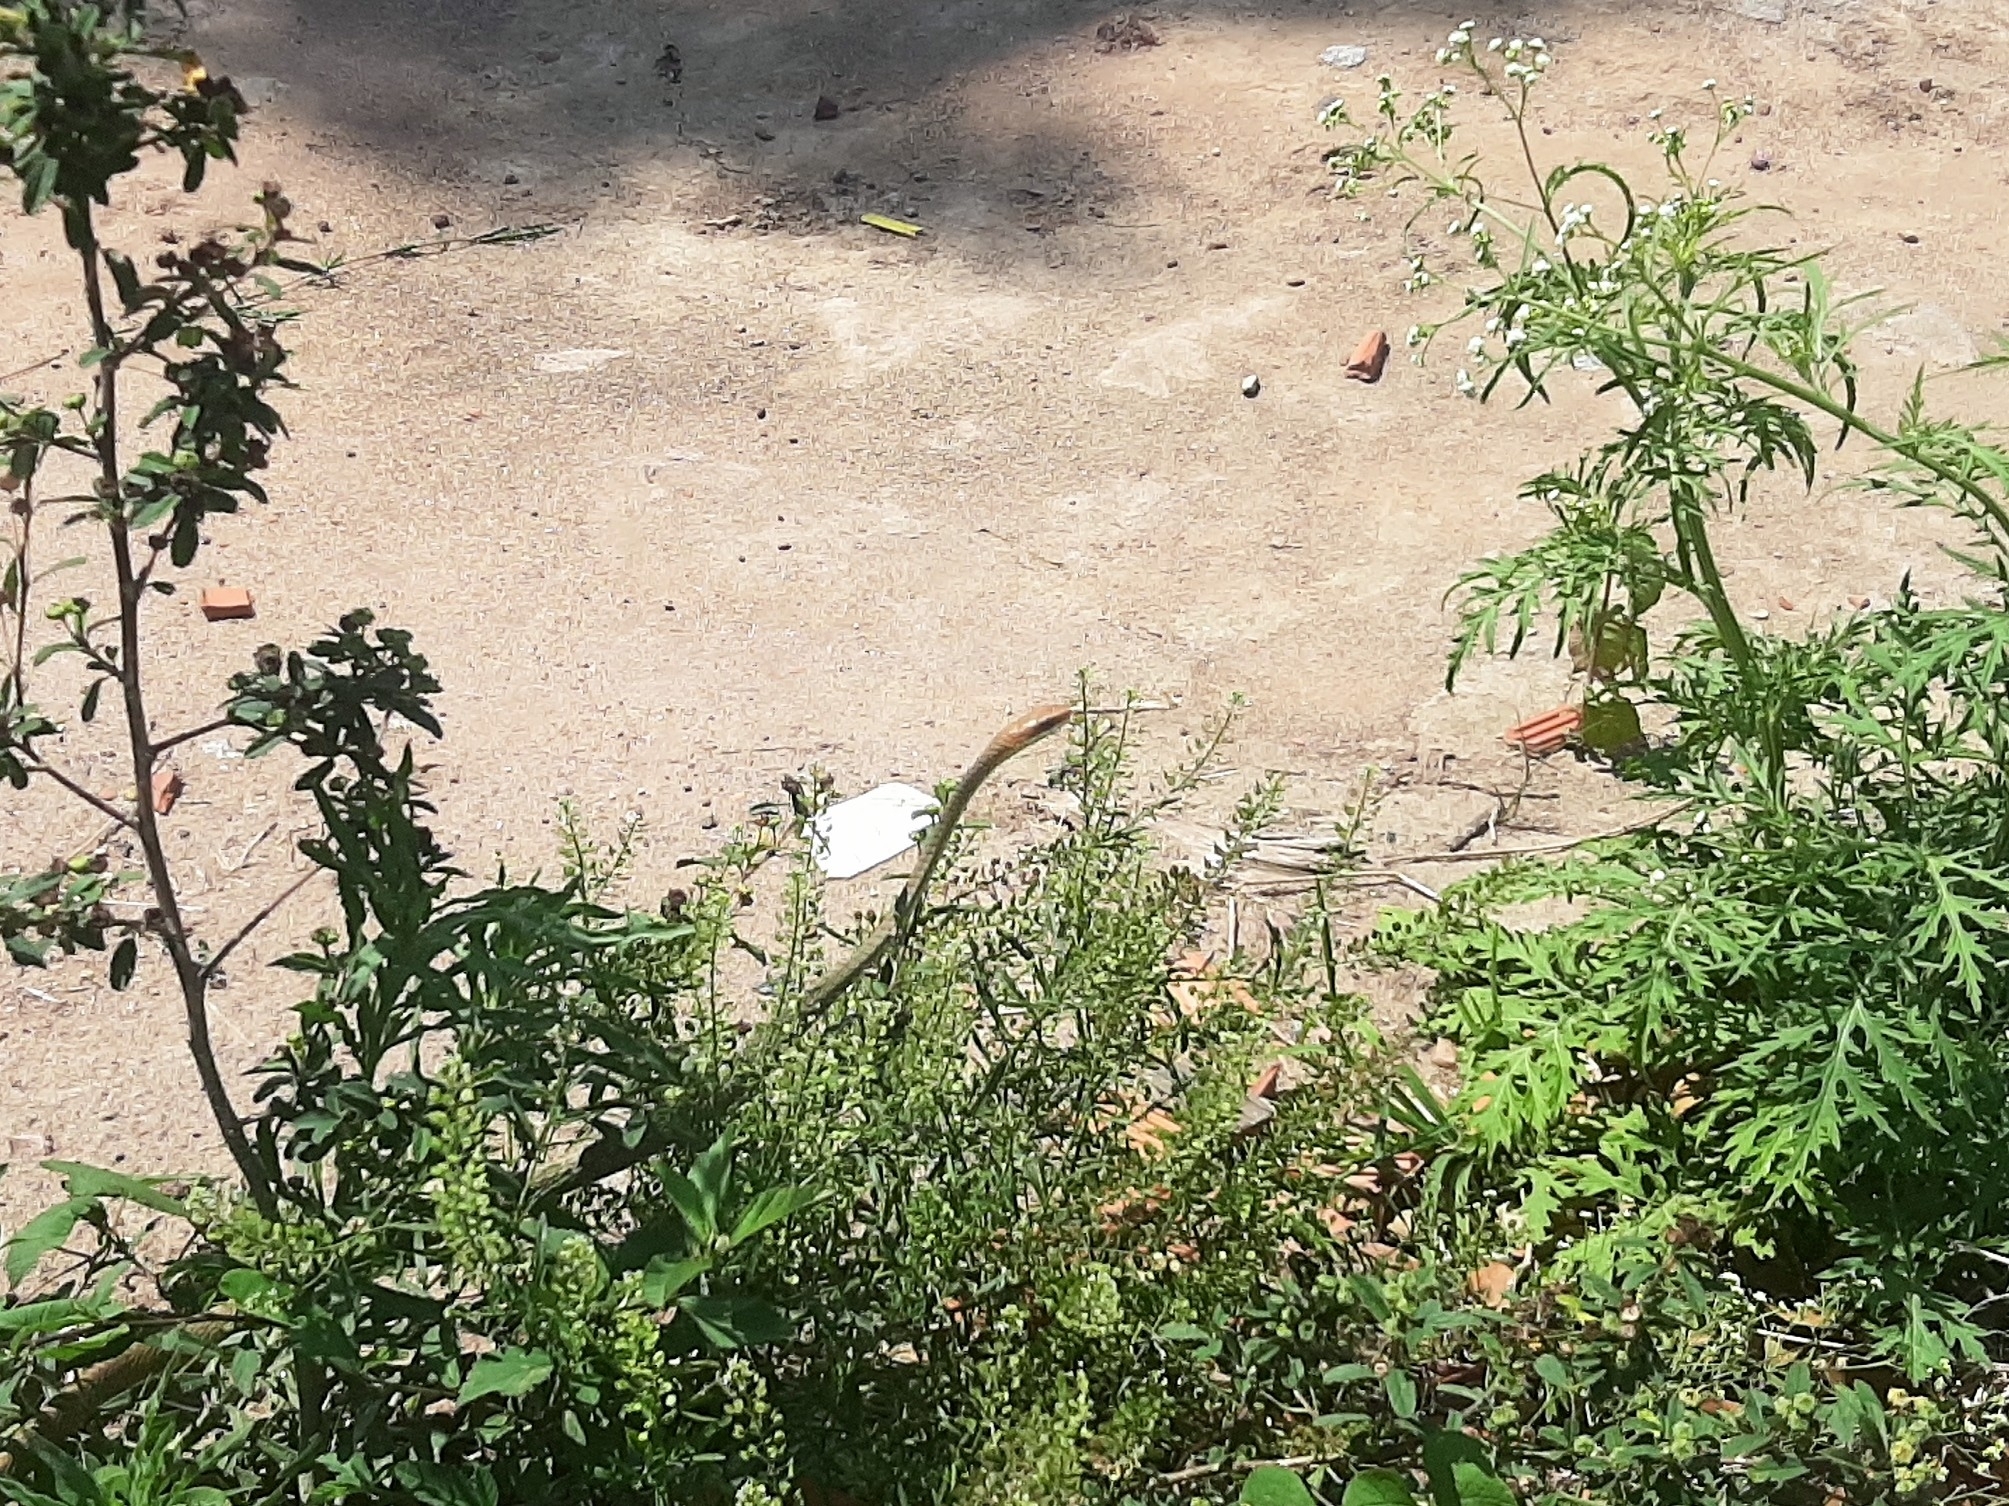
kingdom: Animalia
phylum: Chordata
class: Squamata
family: Colubridae
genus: Chironius
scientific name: Chironius quadricarinatus
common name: Central sipo
